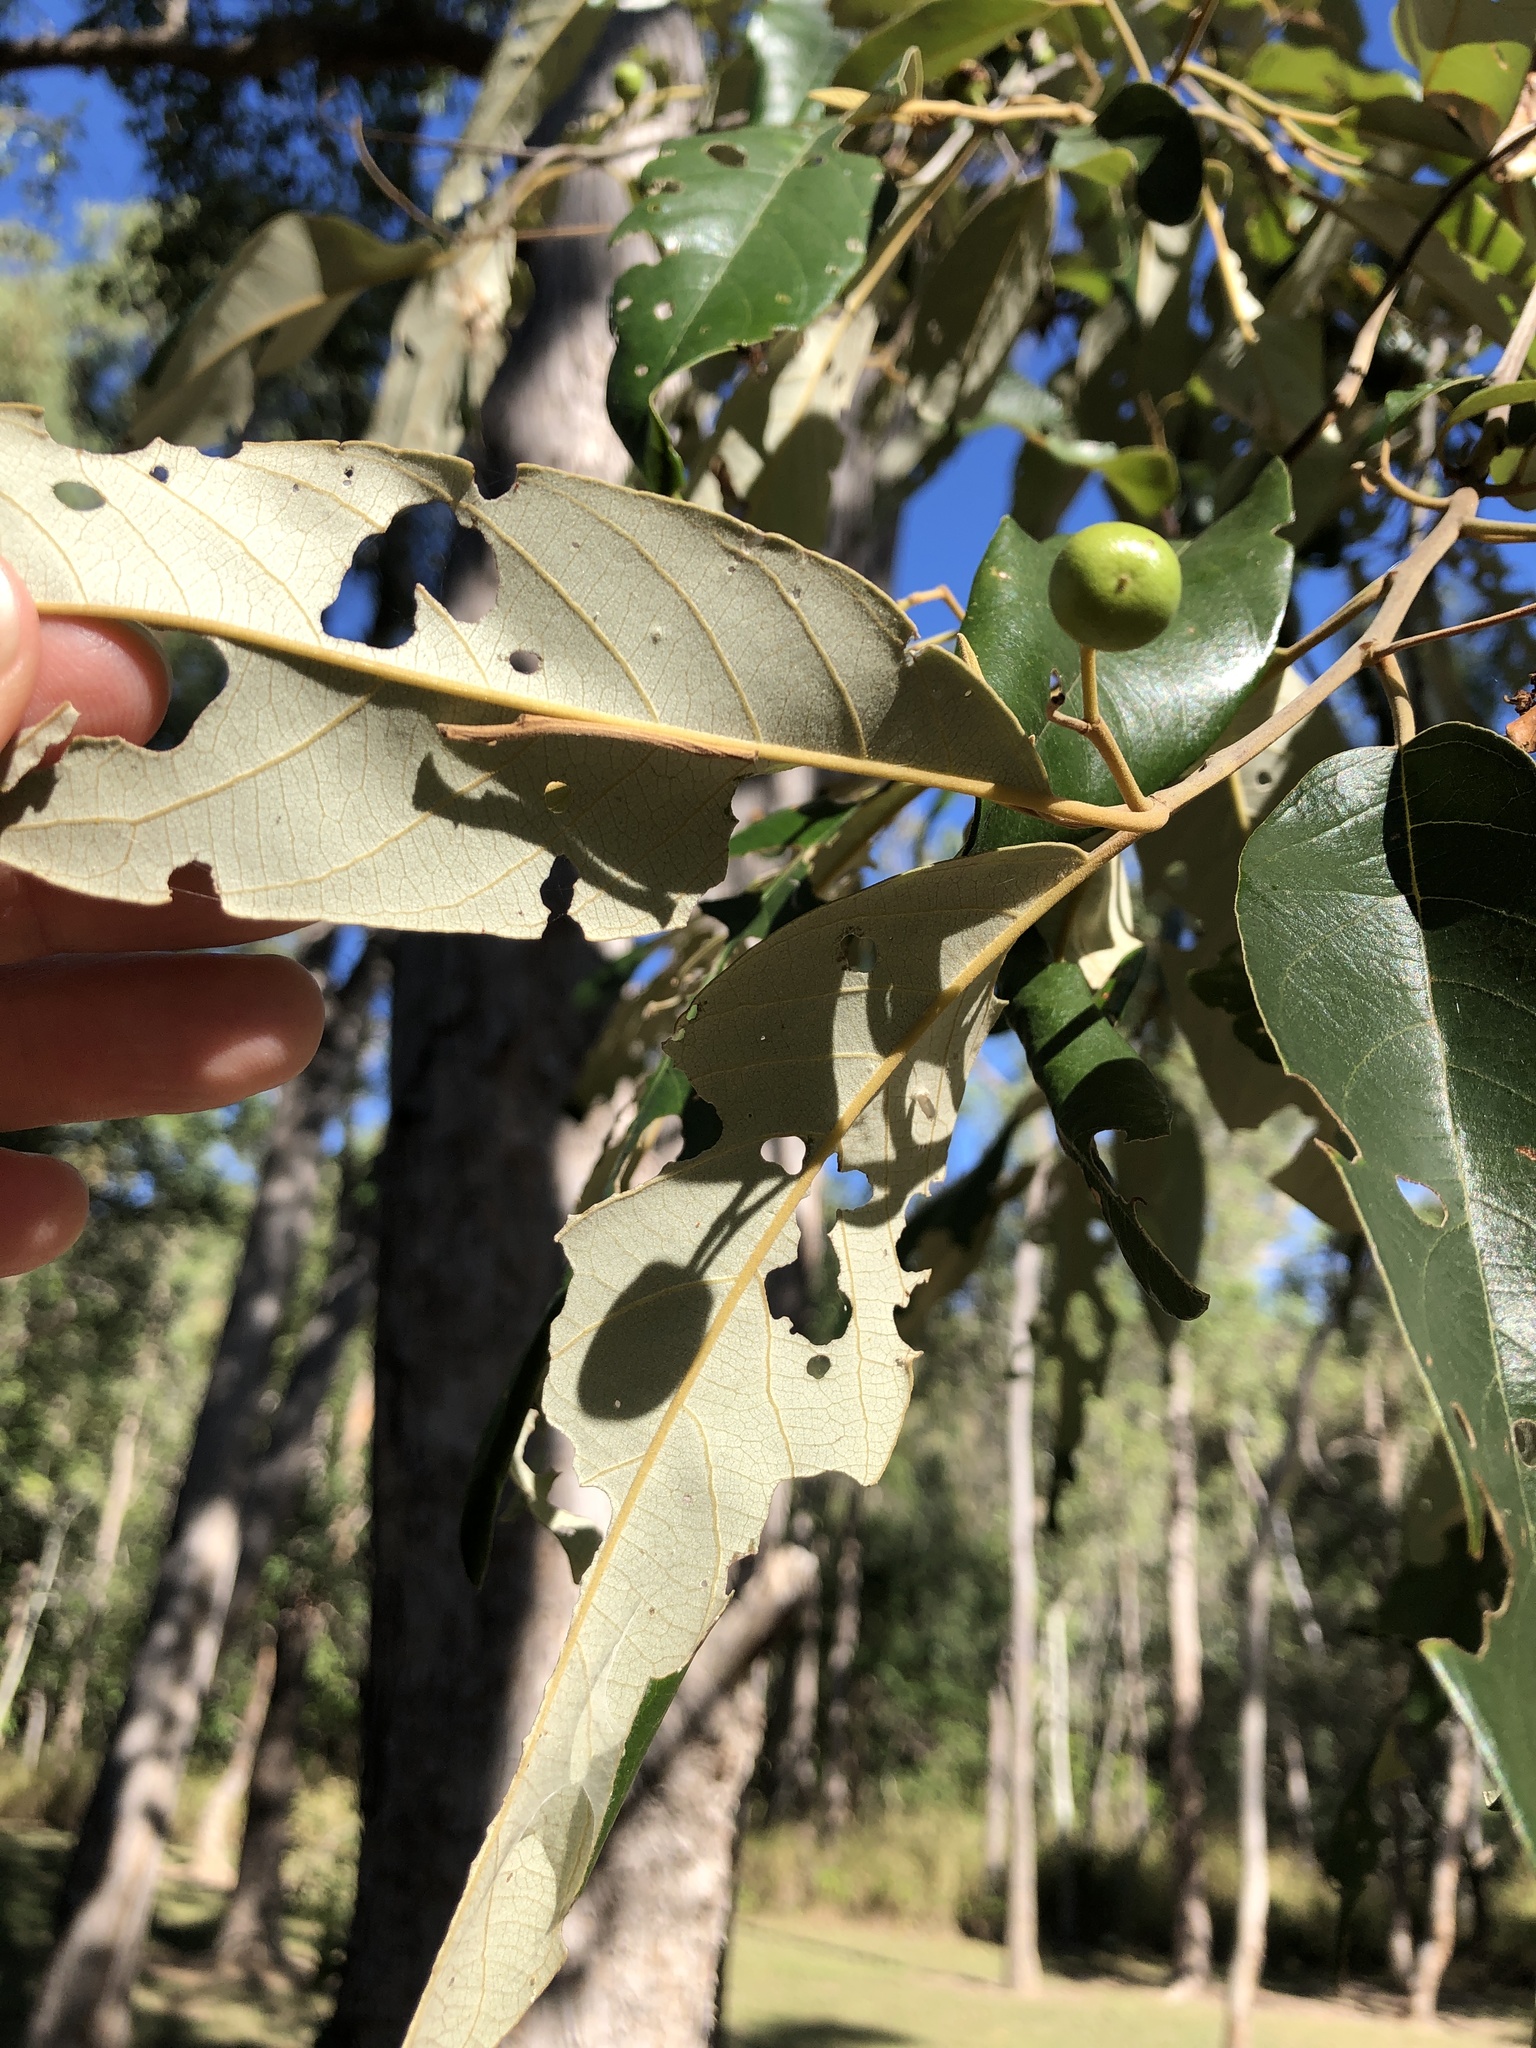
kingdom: Plantae
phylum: Tracheophyta
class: Magnoliopsida
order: Rosales
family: Rhamnaceae
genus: Alphitonia
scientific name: Alphitonia excelsa
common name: Red ash
